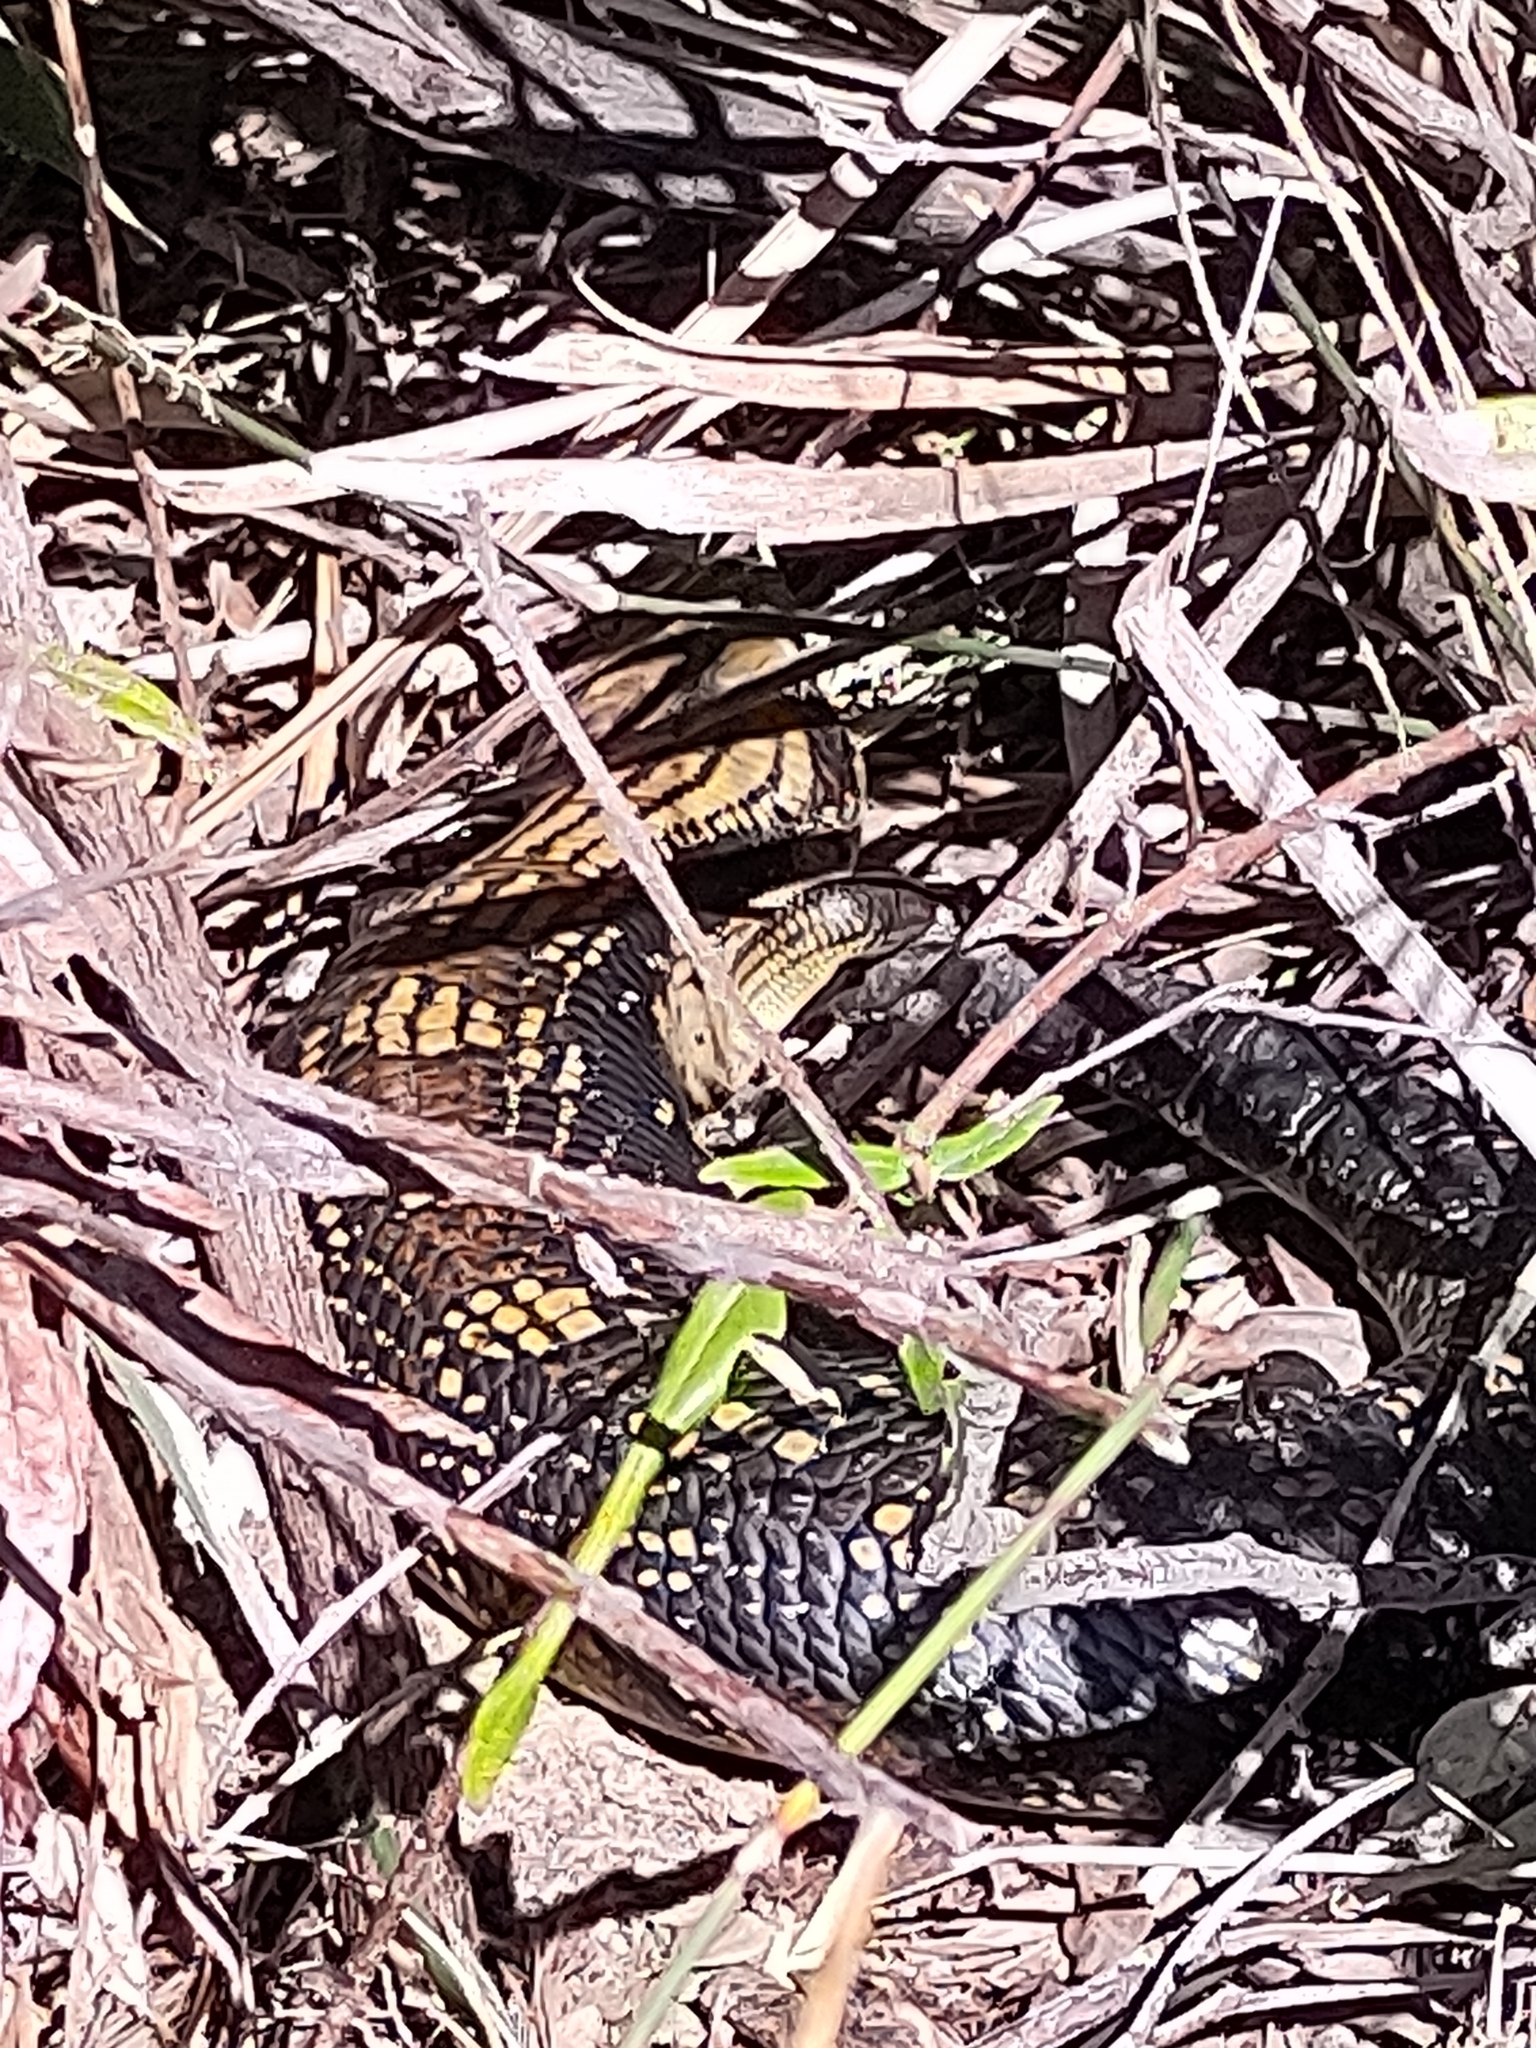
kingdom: Animalia
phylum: Chordata
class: Squamata
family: Scincidae
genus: Tiliqua
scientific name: Tiliqua scincoides
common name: Common bluetongue
